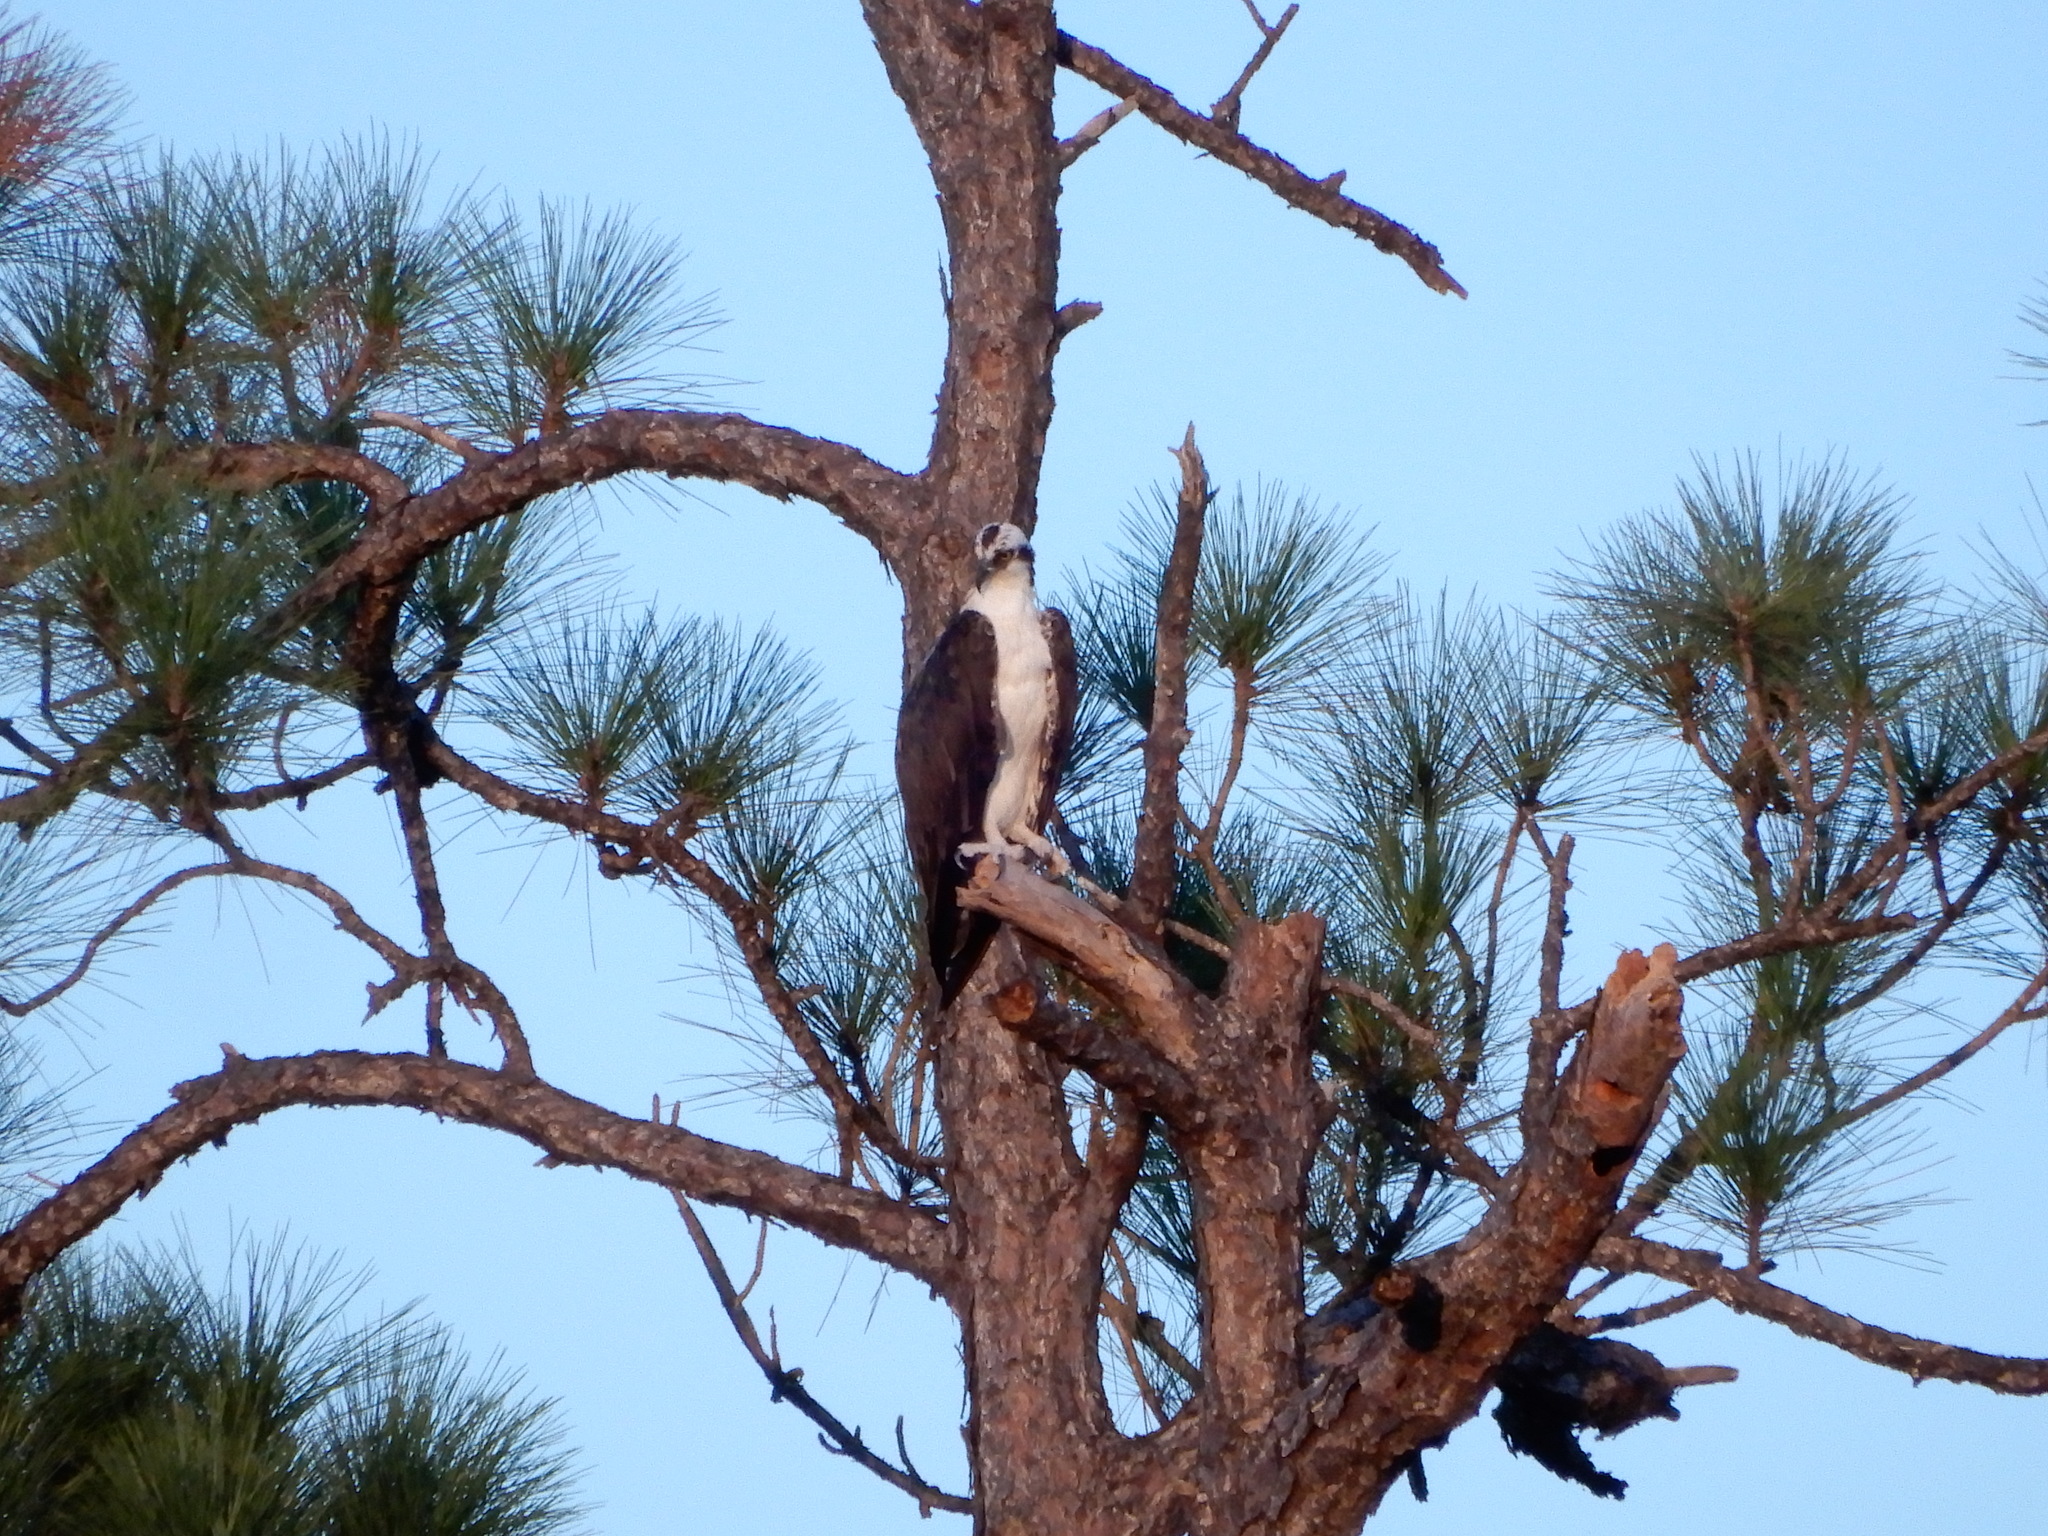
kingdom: Animalia
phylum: Chordata
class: Aves
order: Accipitriformes
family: Pandionidae
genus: Pandion
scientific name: Pandion haliaetus
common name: Osprey
